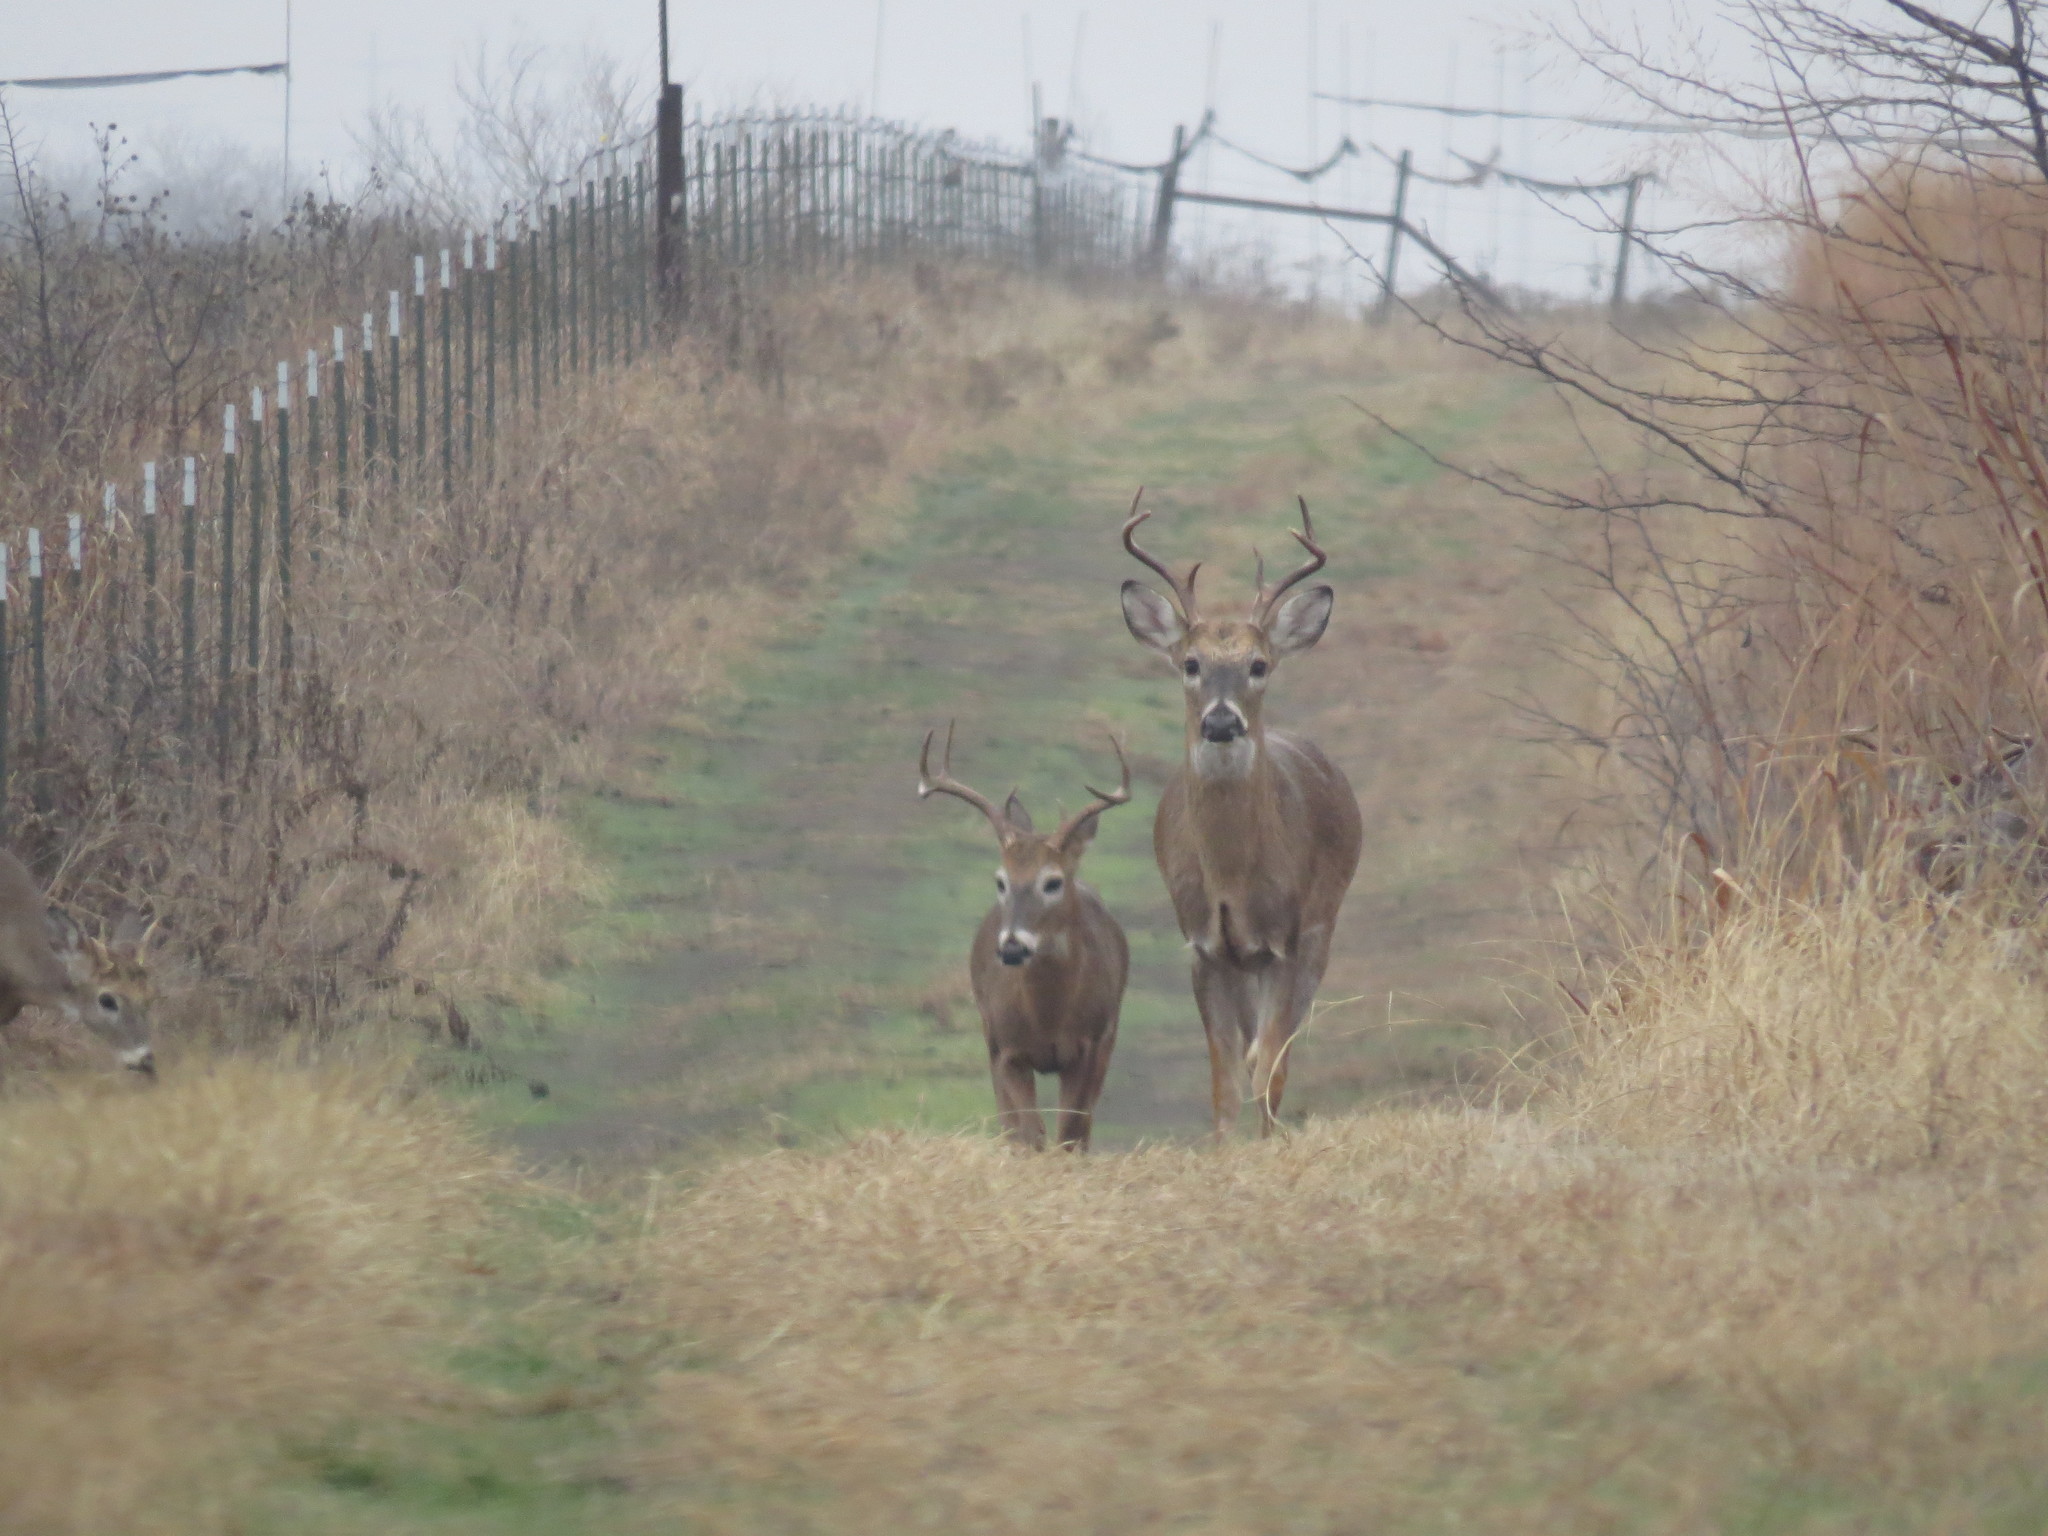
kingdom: Animalia
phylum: Chordata
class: Mammalia
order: Artiodactyla
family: Cervidae
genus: Odocoileus
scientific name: Odocoileus virginianus
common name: White-tailed deer
